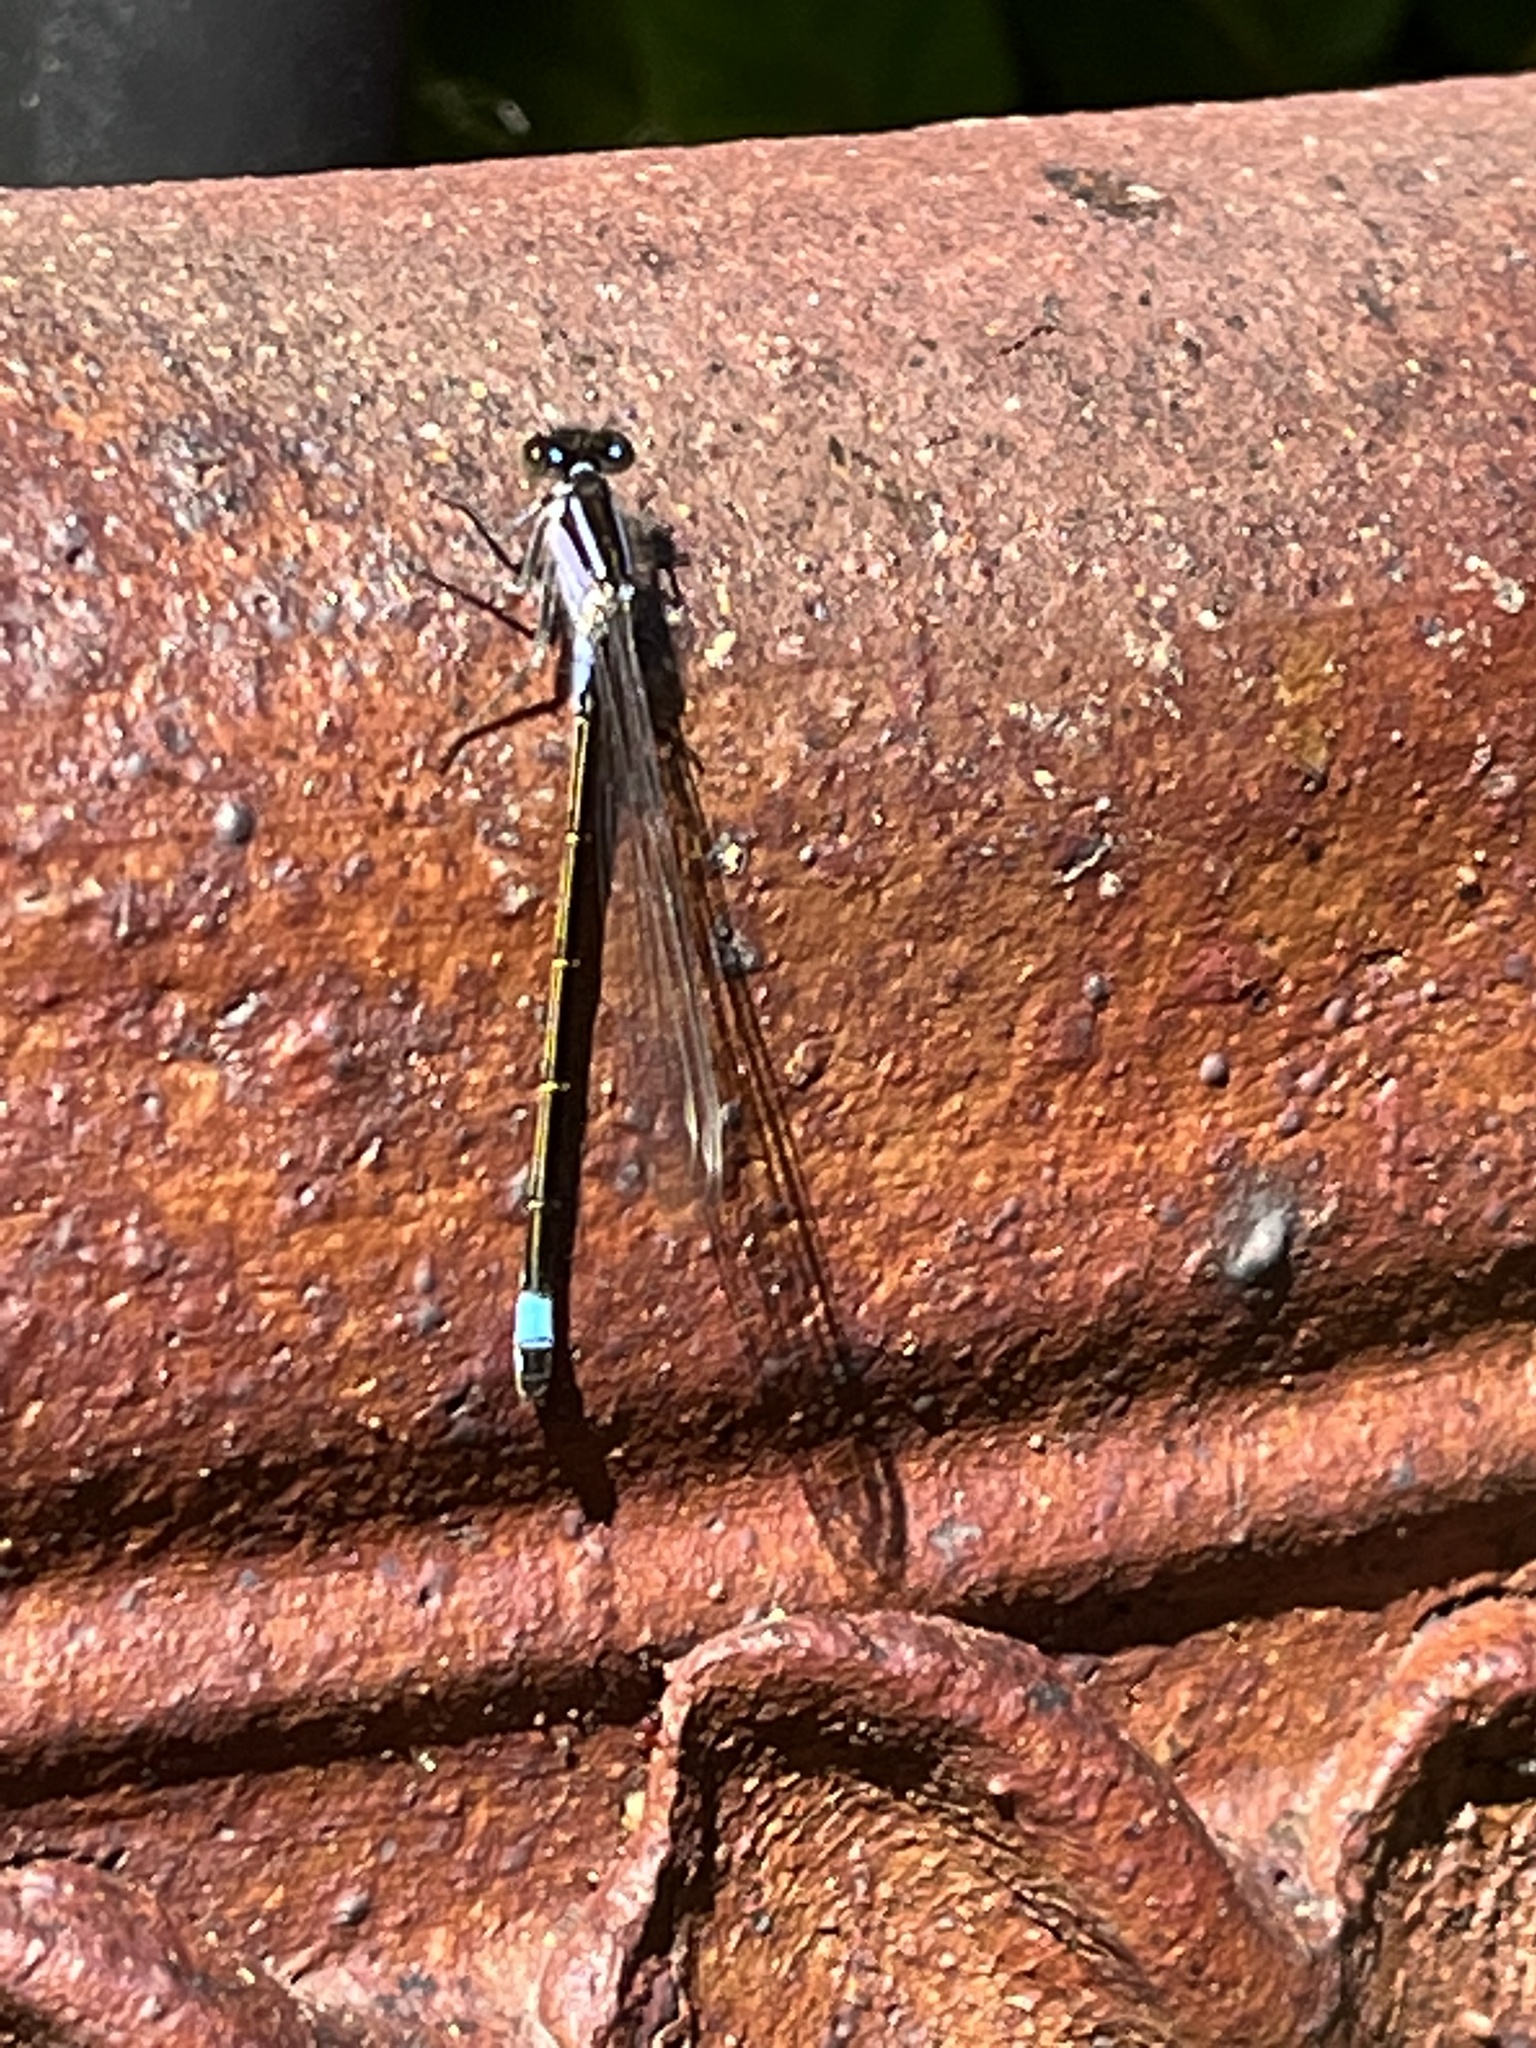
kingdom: Animalia
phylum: Arthropoda
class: Insecta
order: Odonata
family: Coenagrionidae
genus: Ischnura
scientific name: Ischnura elegans
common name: Blue-tailed damselfly
